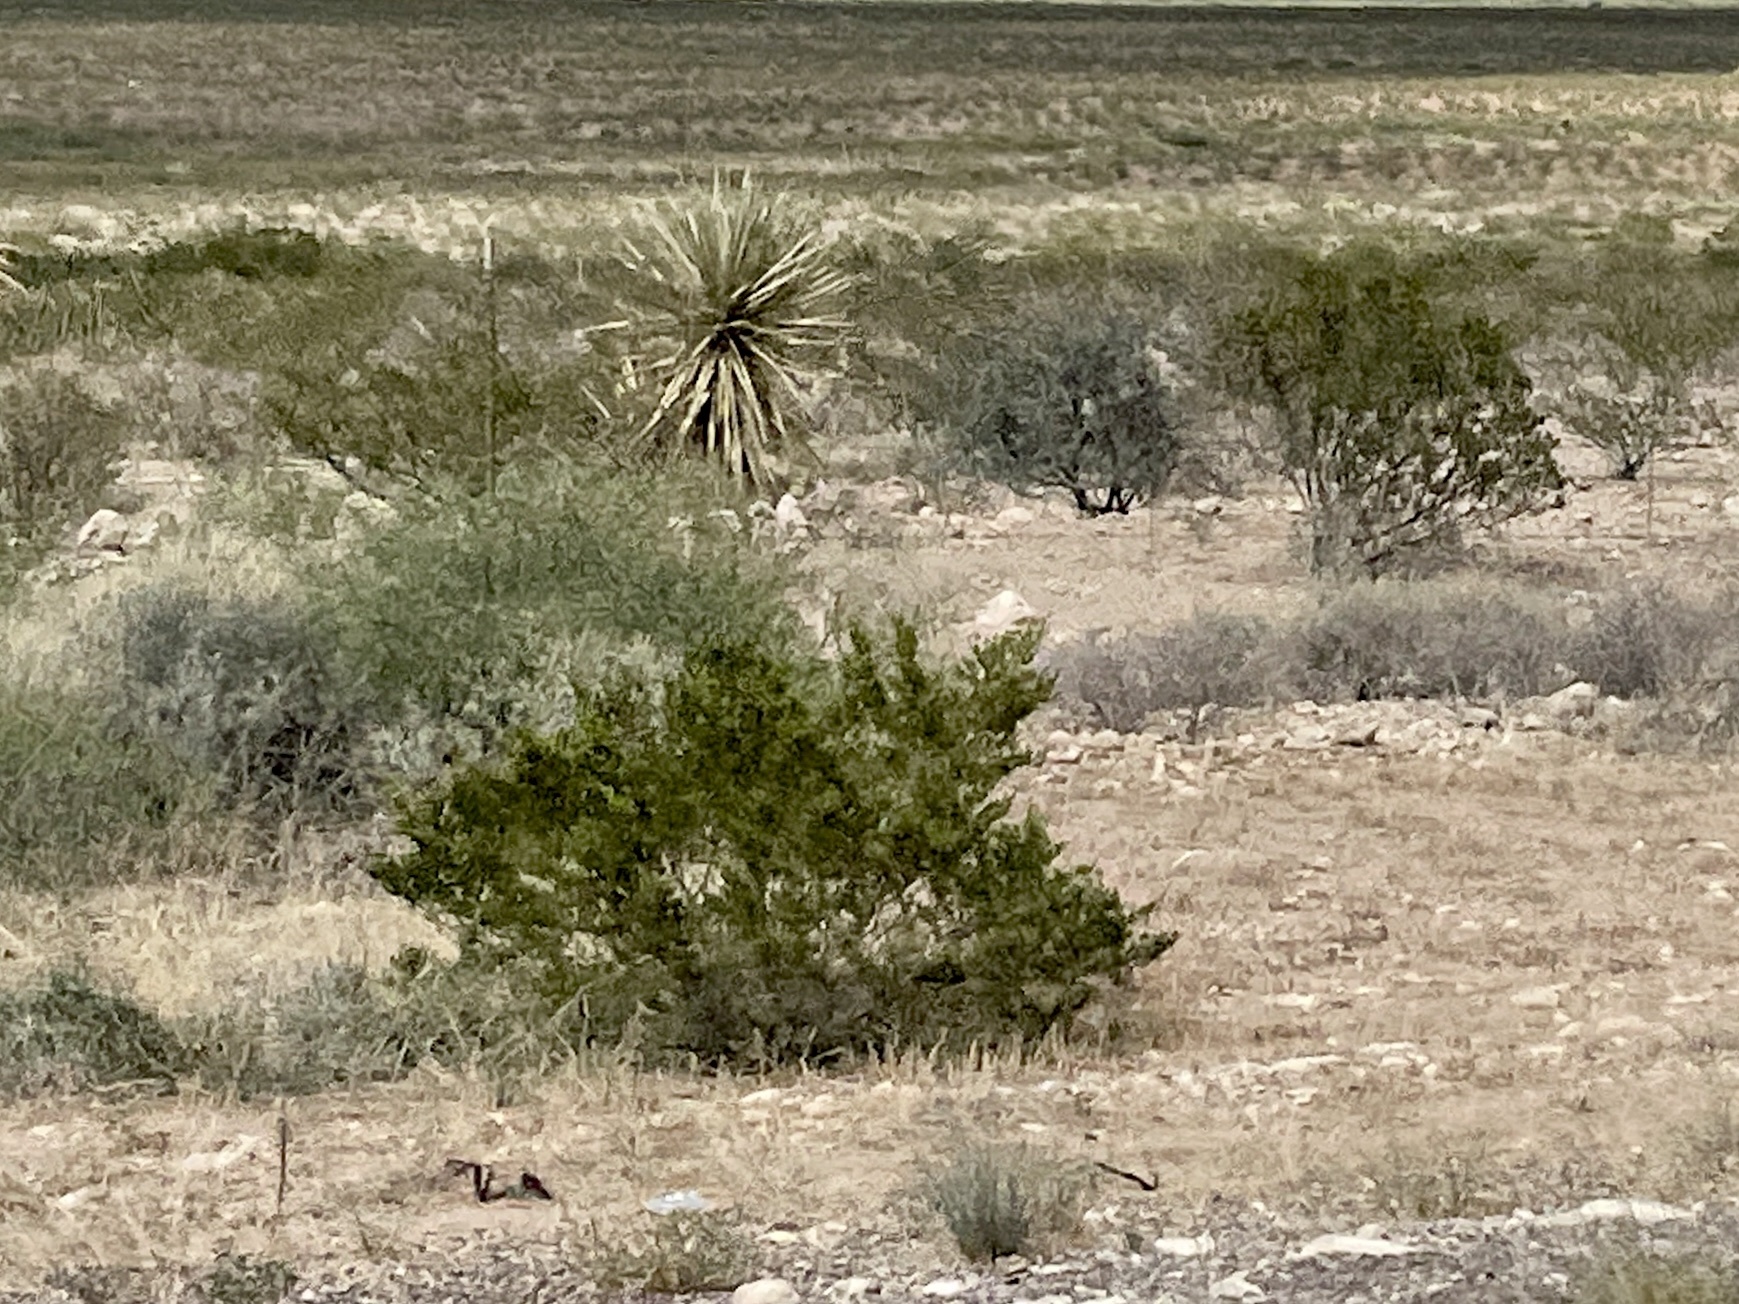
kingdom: Plantae
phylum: Tracheophyta
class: Magnoliopsida
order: Zygophyllales
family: Zygophyllaceae
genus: Larrea
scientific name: Larrea tridentata
